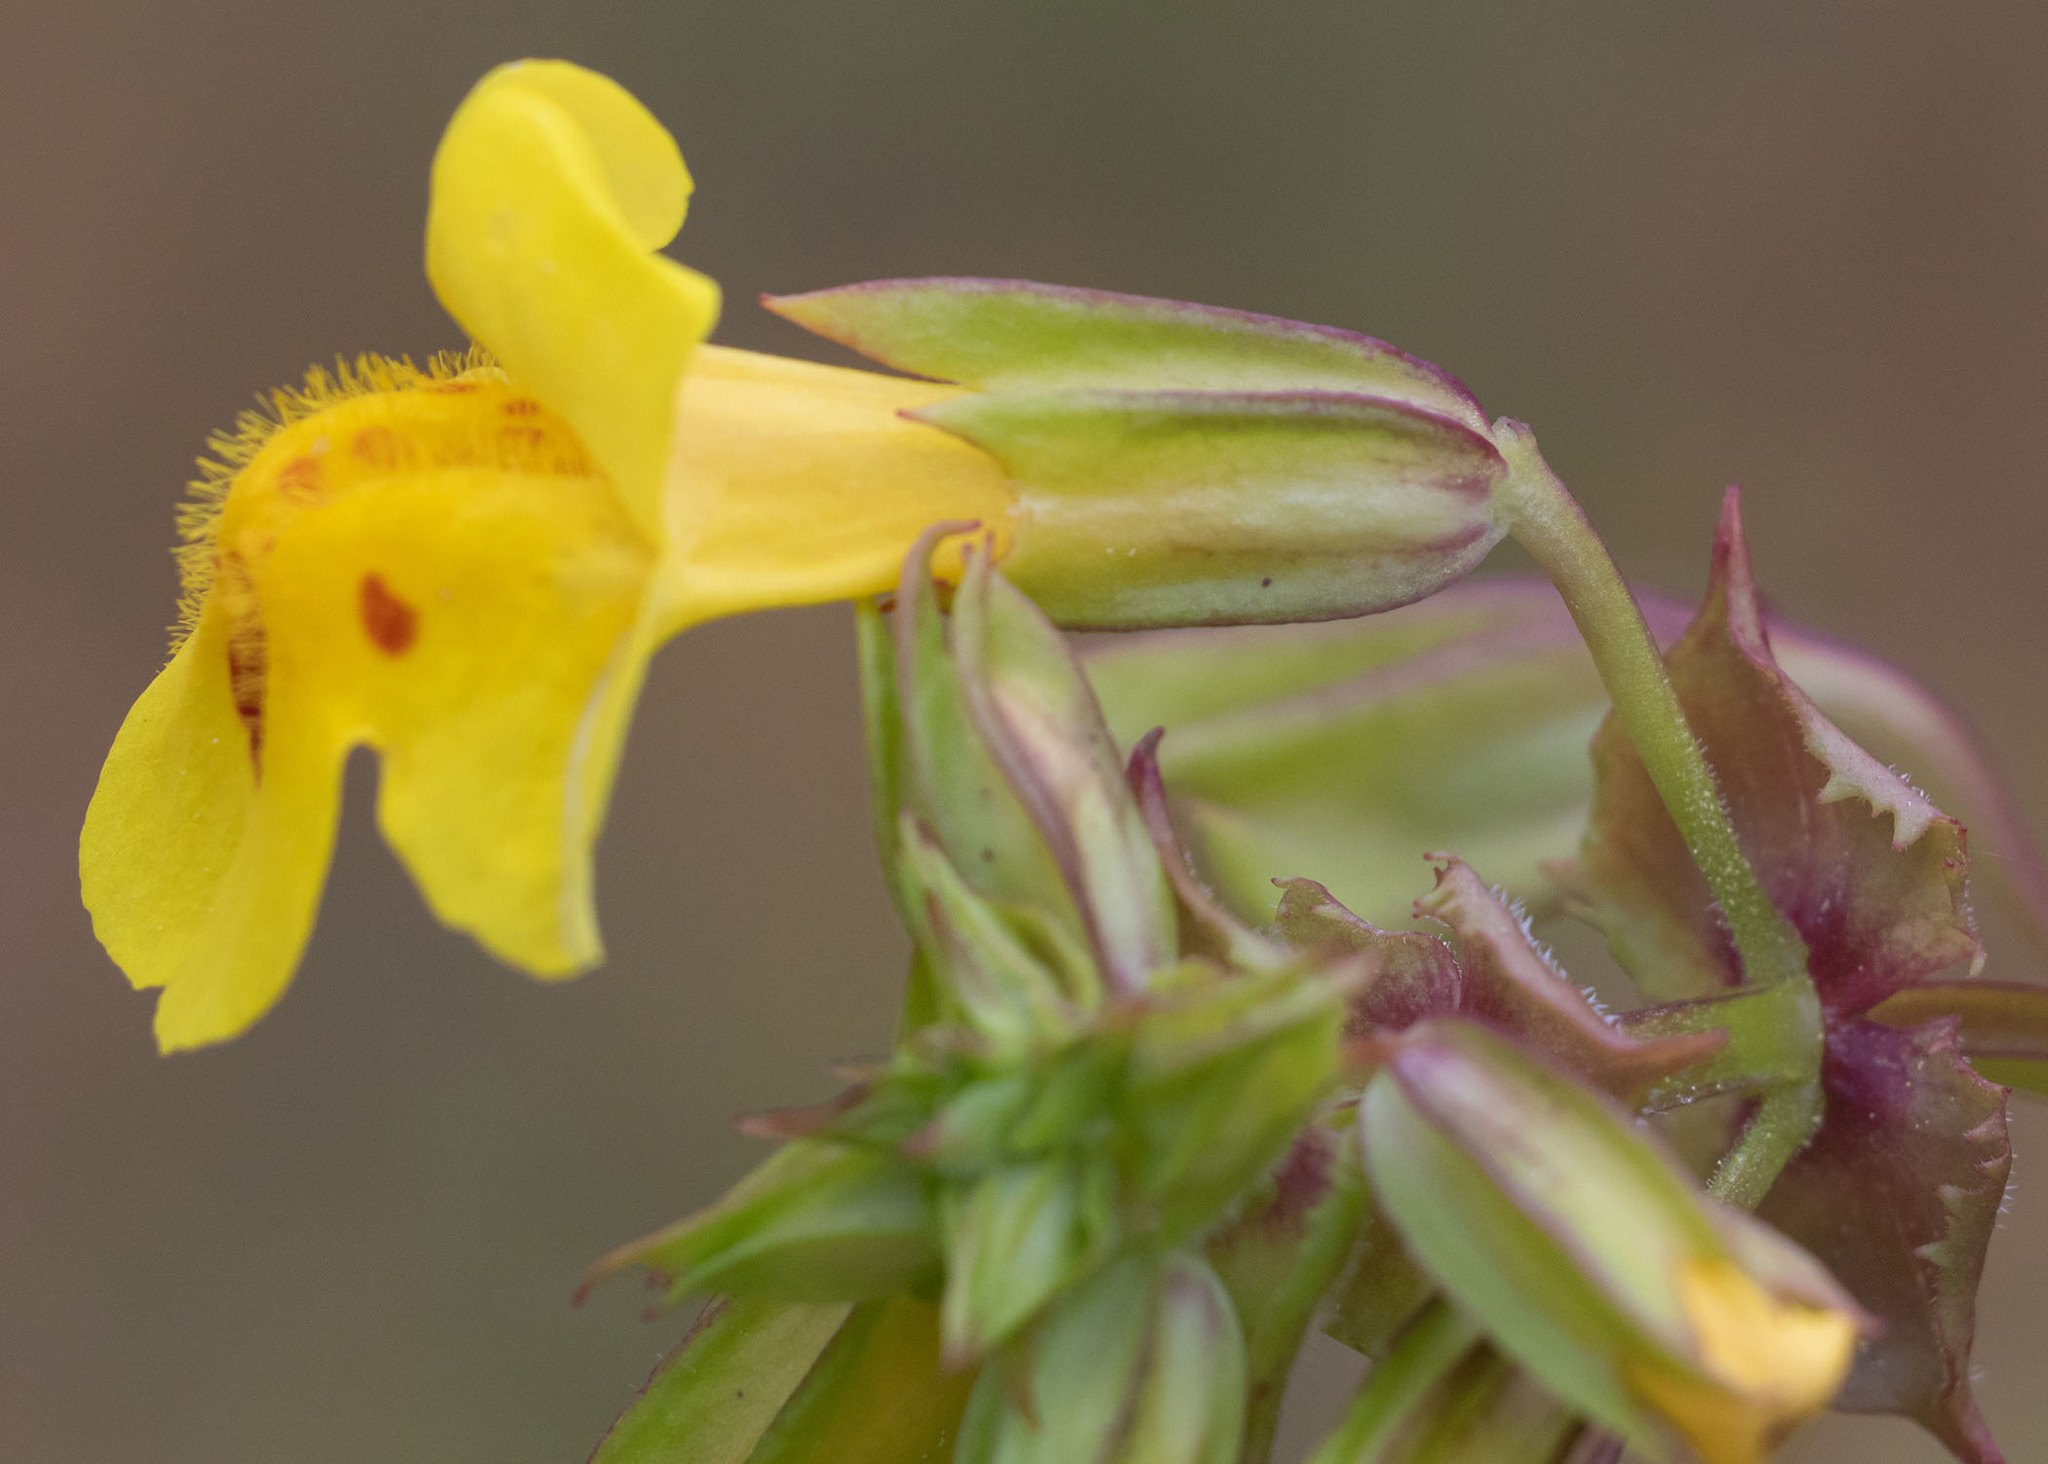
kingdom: Plantae
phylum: Tracheophyta
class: Magnoliopsida
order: Lamiales
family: Phrymaceae
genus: Erythranthe
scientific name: Erythranthe nasuta
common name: Sooke monkeyflower
